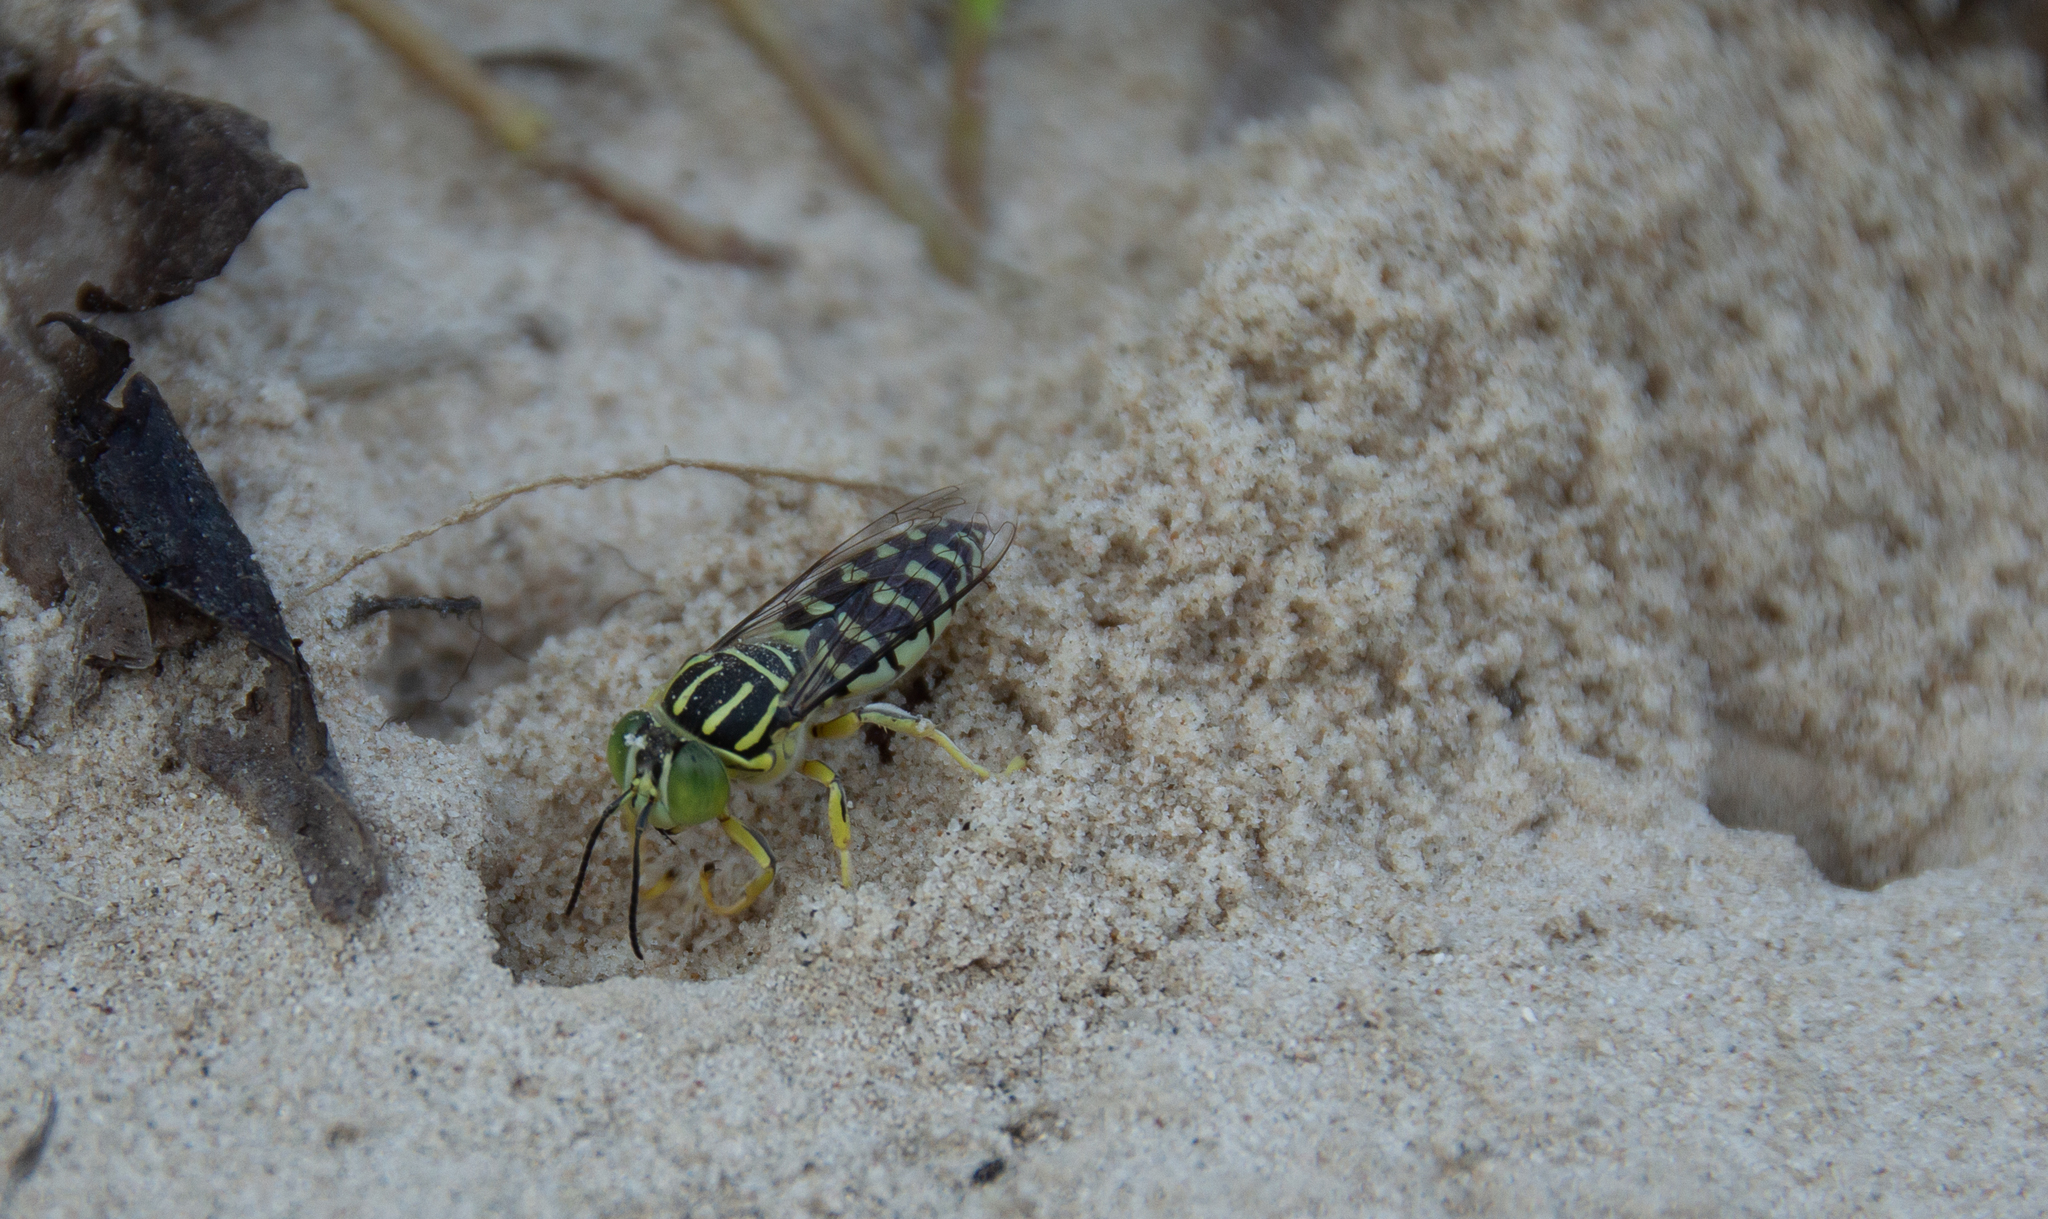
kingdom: Animalia
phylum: Arthropoda
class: Insecta
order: Hymenoptera
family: Crabronidae
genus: Stictia
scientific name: Stictia signata
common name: Sand wasp
